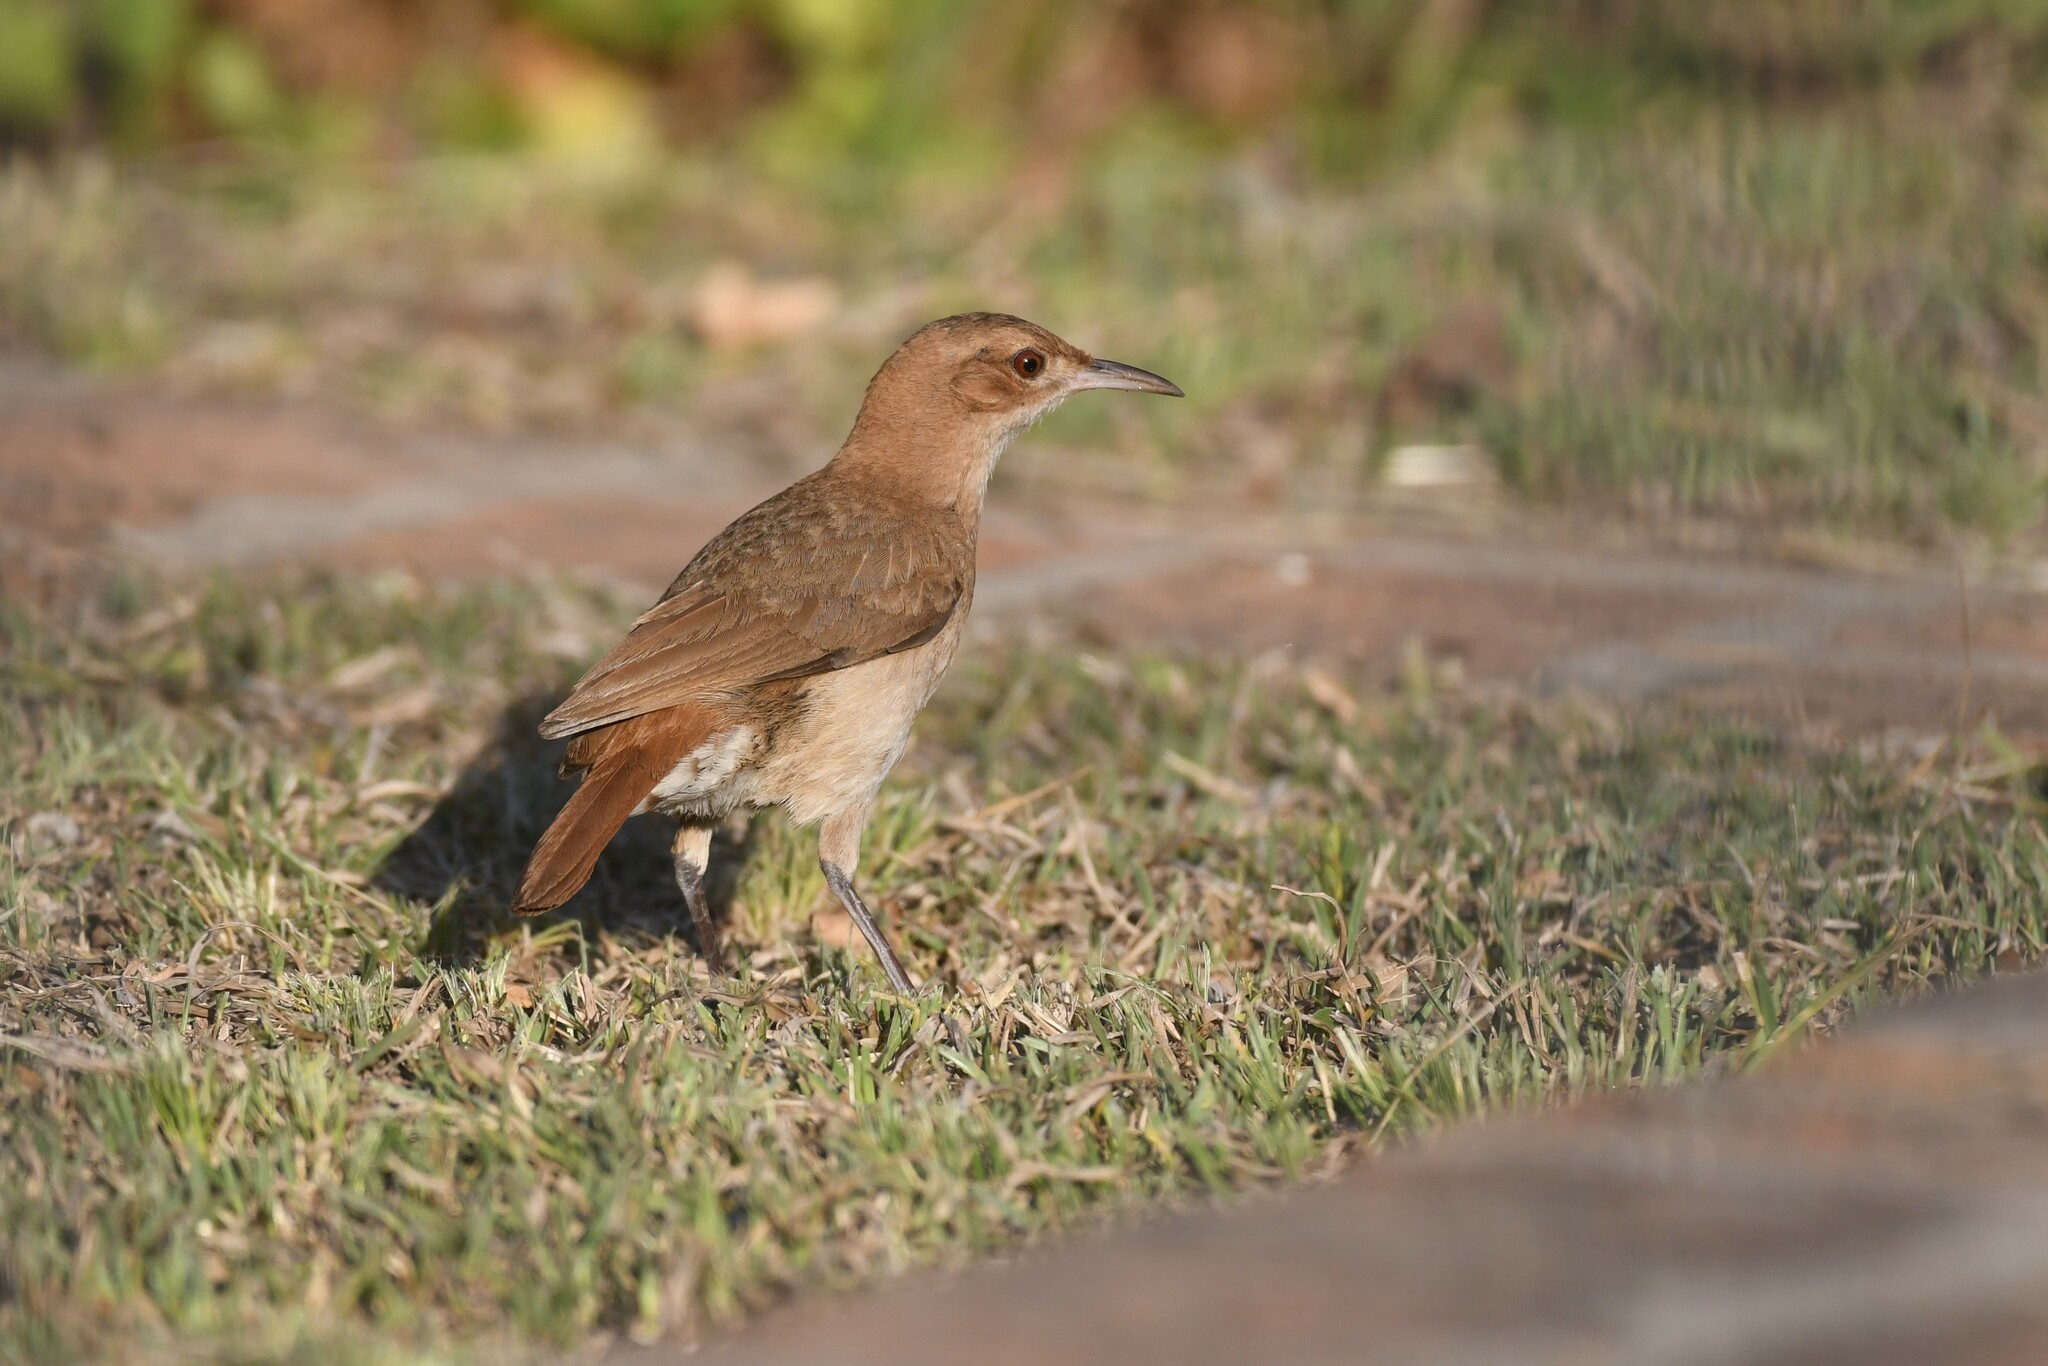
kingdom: Animalia
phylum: Chordata
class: Aves
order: Passeriformes
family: Furnariidae
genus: Furnarius
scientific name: Furnarius rufus
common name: Rufous hornero
